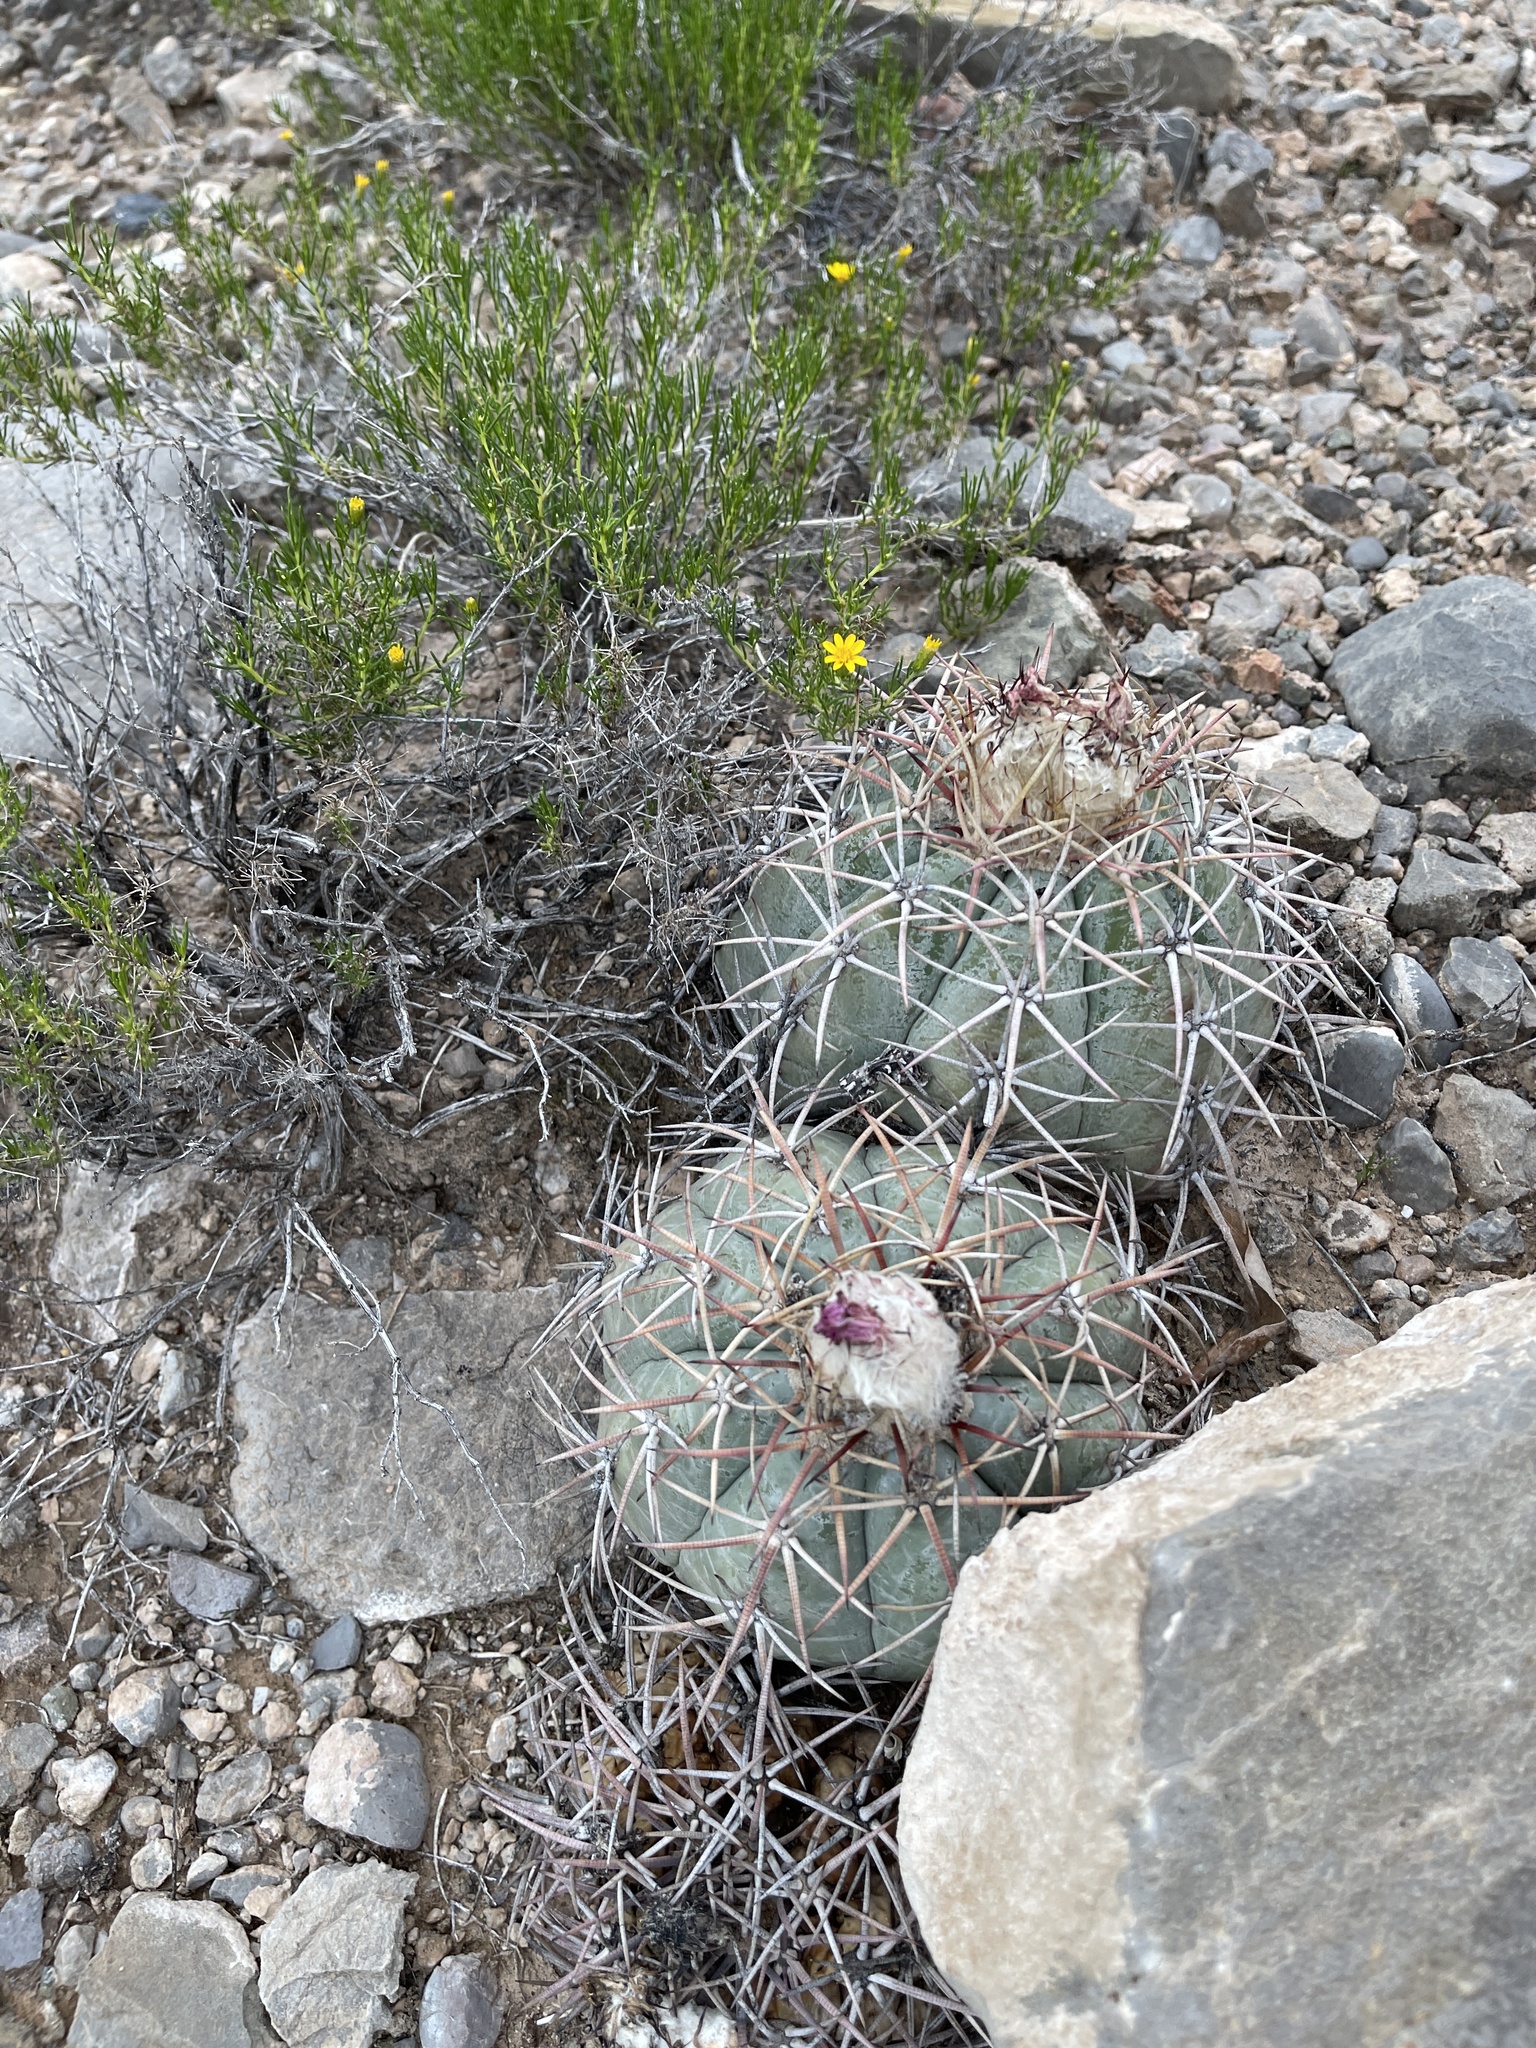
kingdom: Plantae
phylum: Tracheophyta
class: Magnoliopsida
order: Caryophyllales
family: Cactaceae
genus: Echinocactus
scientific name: Echinocactus horizonthalonius
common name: Devilshead
